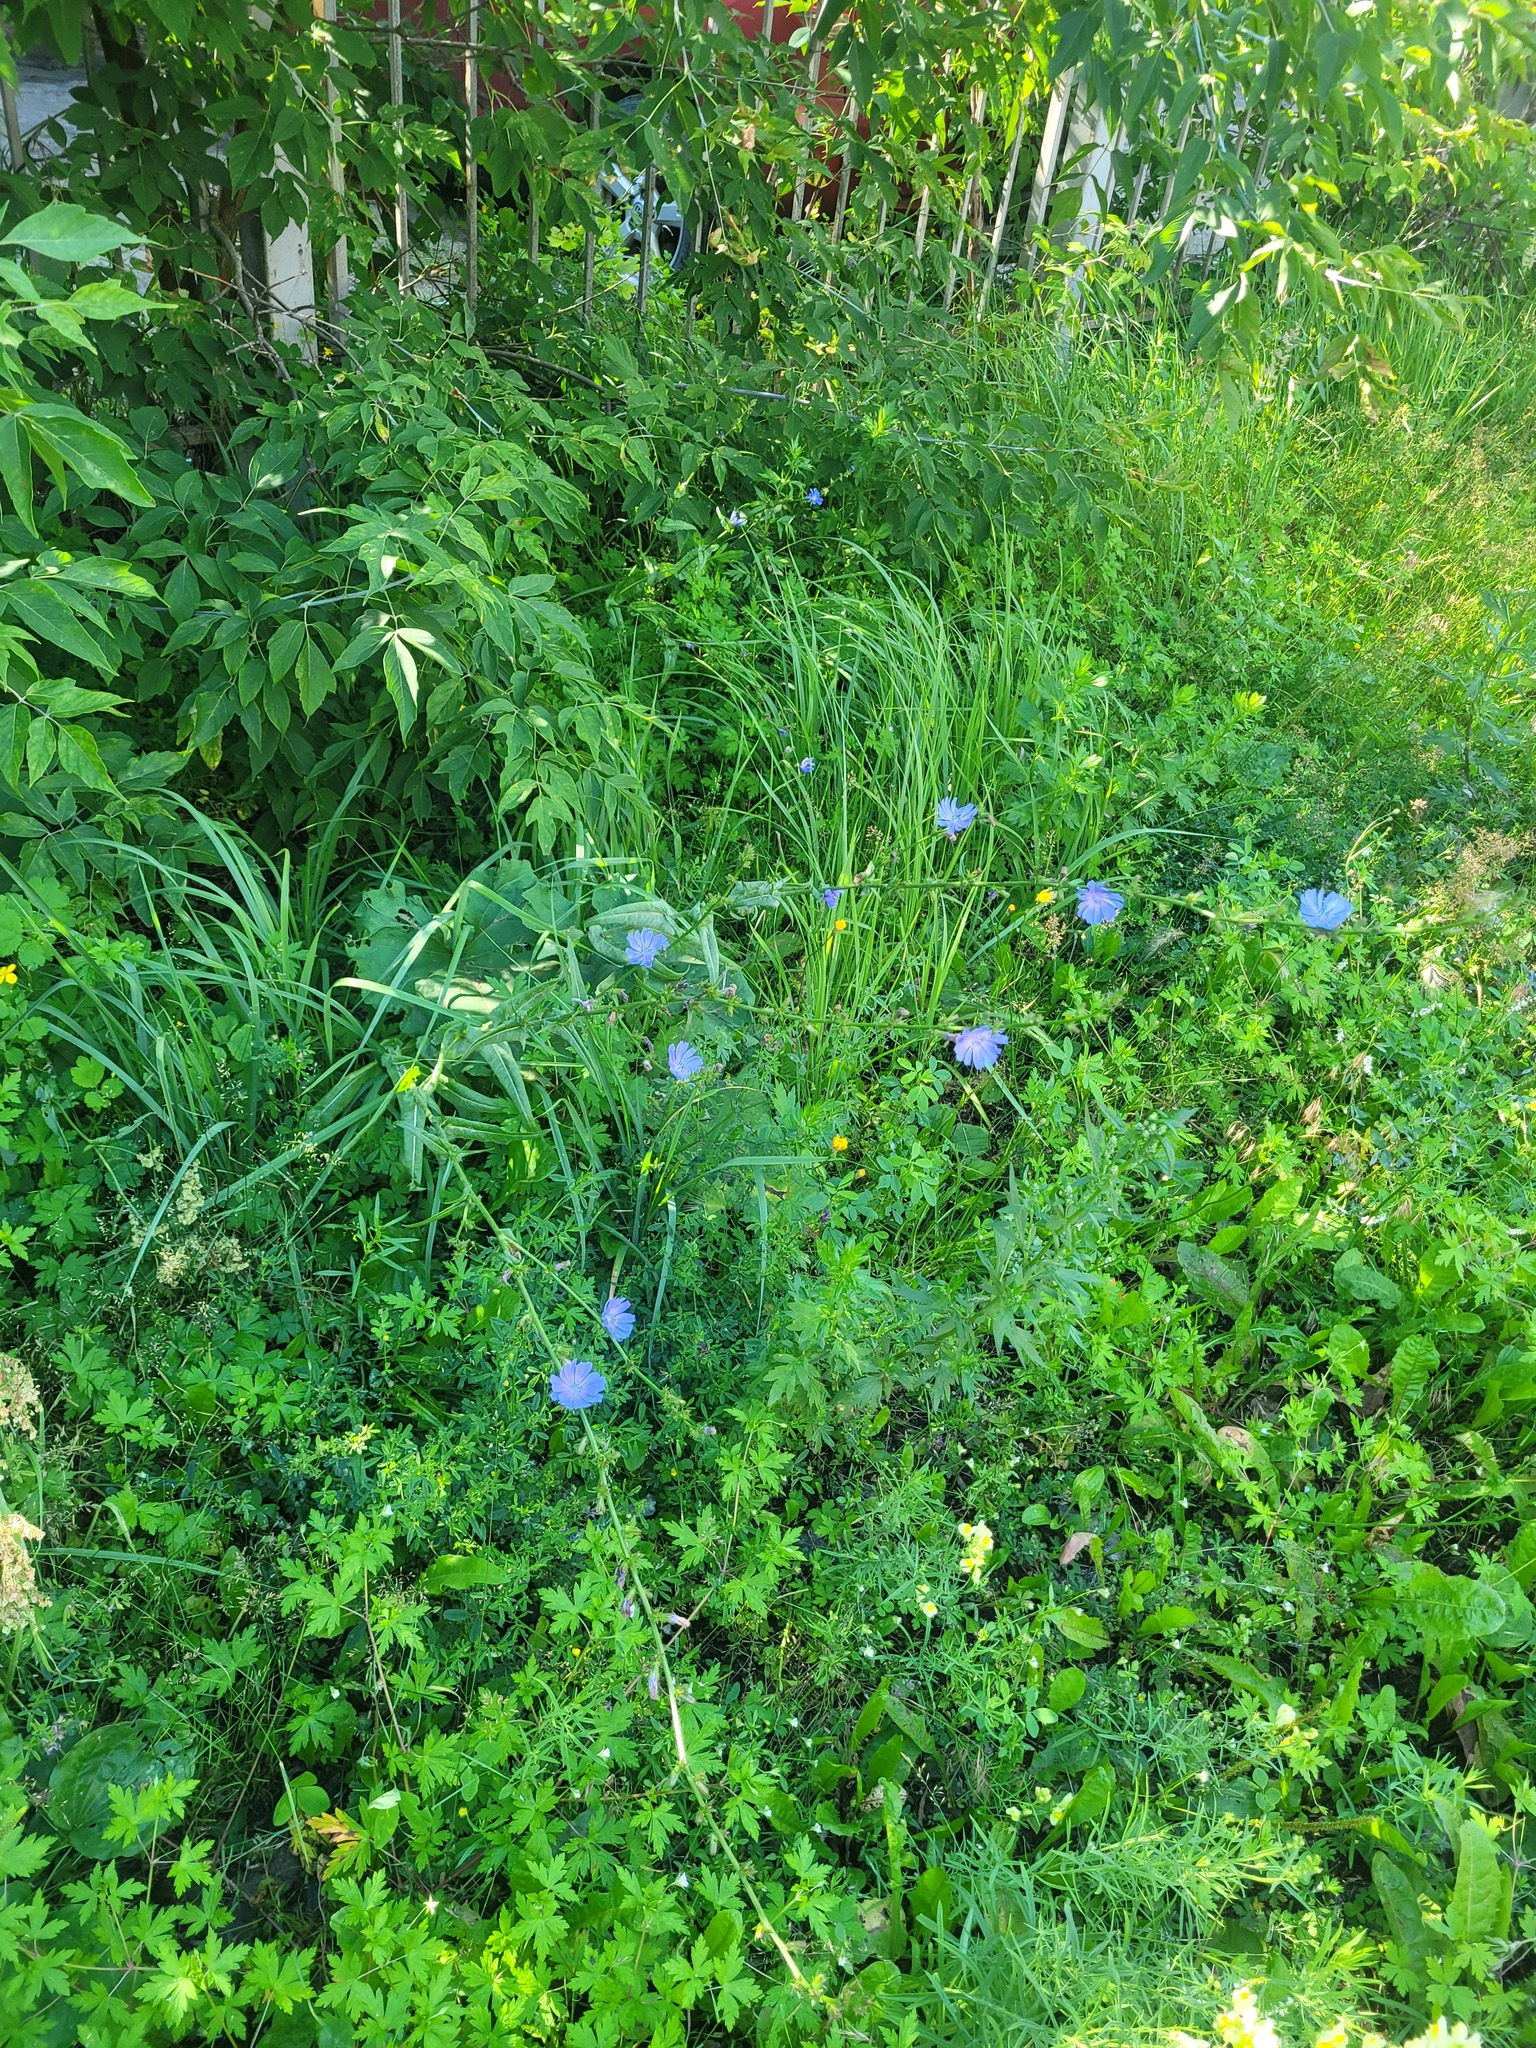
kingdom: Plantae
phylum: Tracheophyta
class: Magnoliopsida
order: Asterales
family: Asteraceae
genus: Cichorium
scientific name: Cichorium intybus
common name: Chicory
